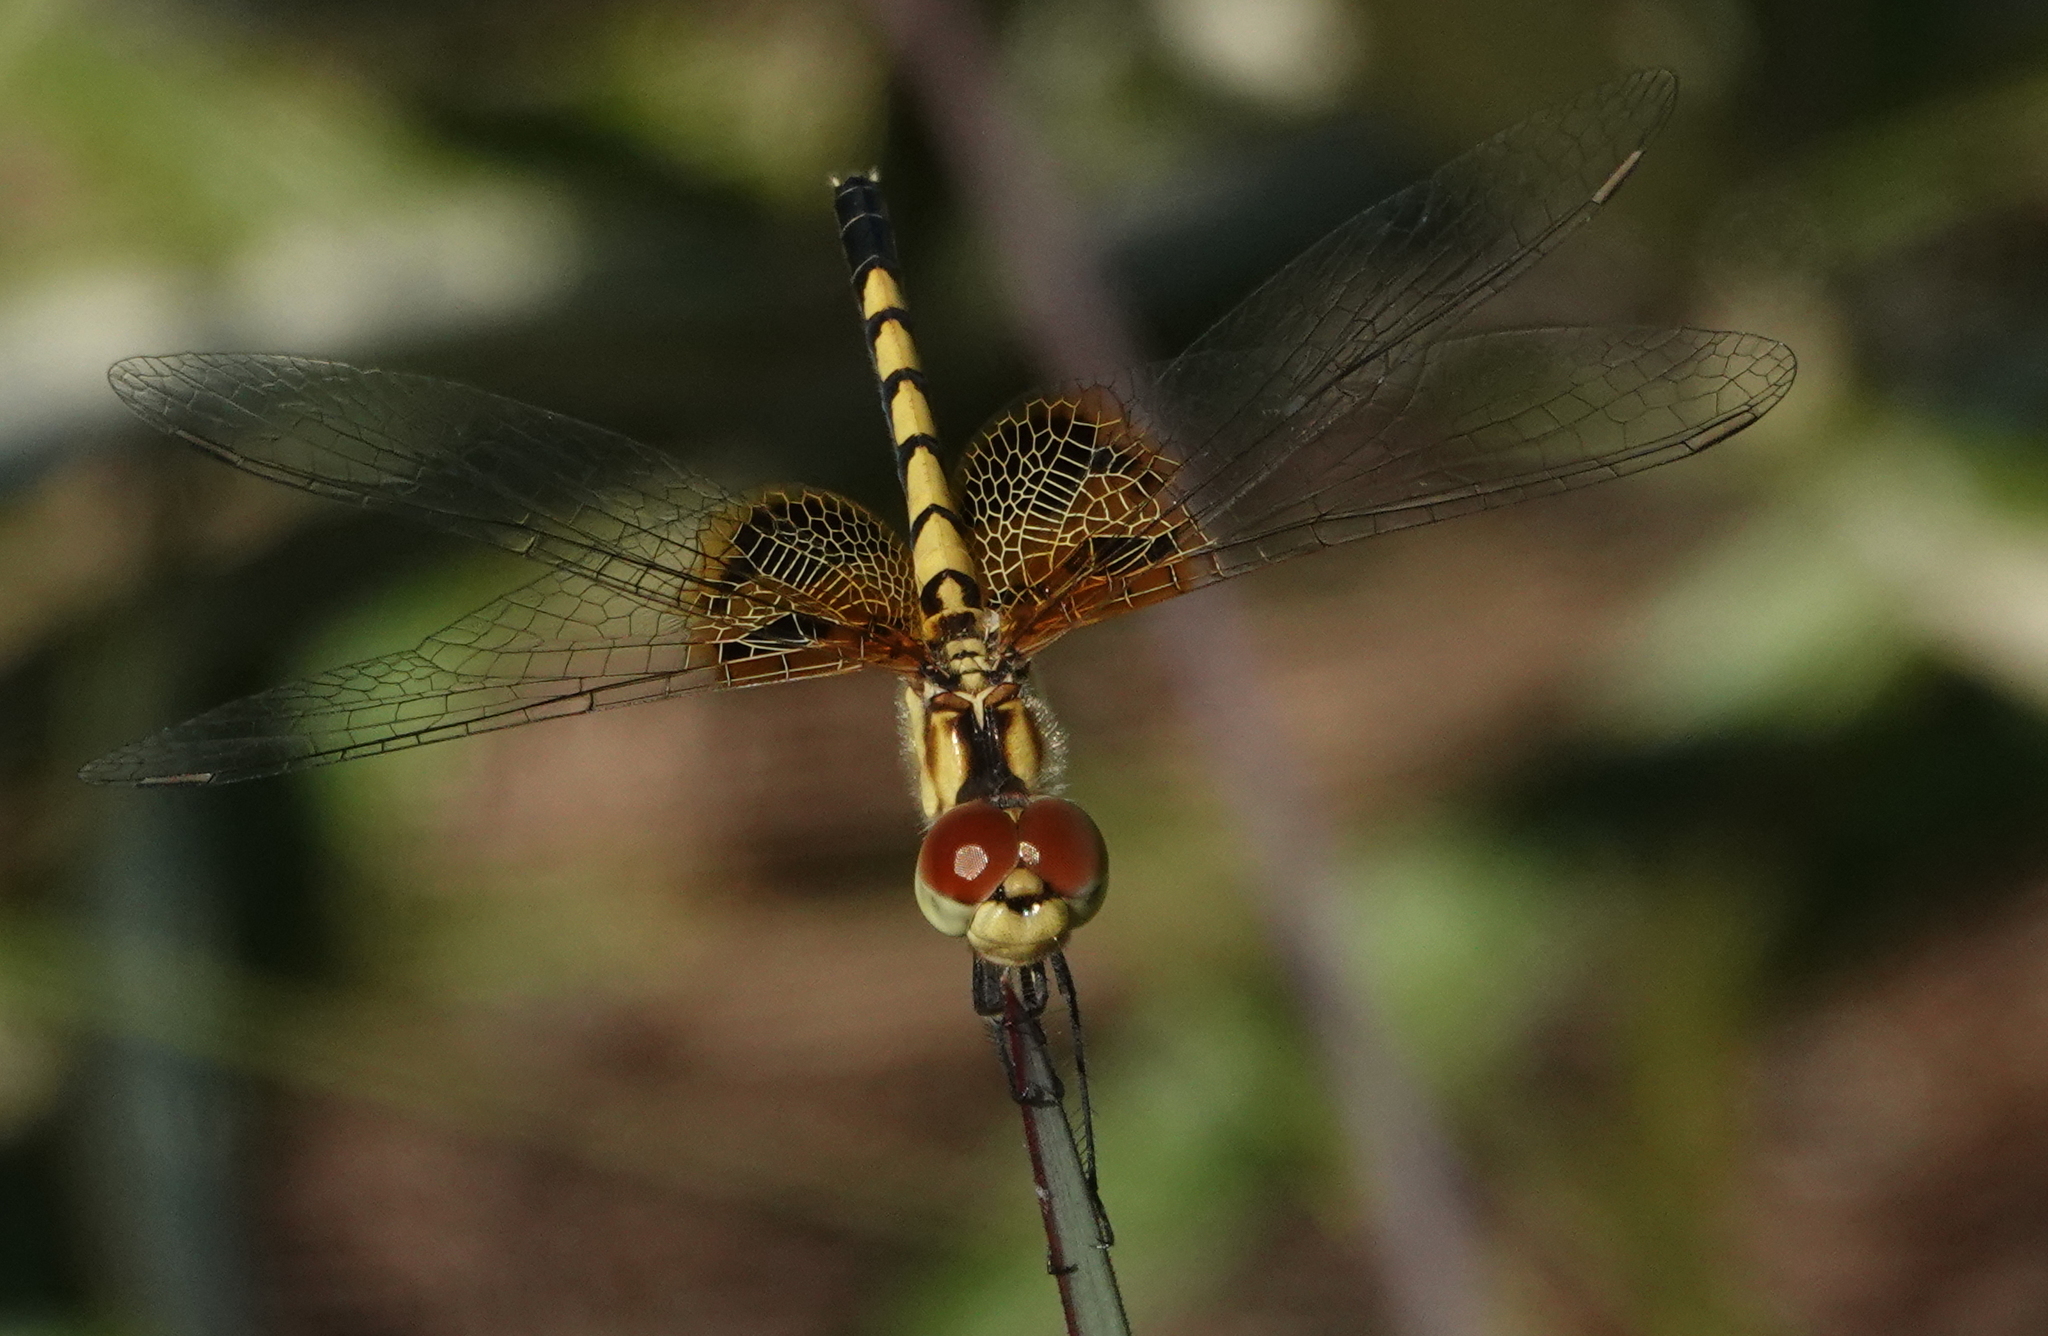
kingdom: Animalia
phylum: Arthropoda
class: Insecta
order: Odonata
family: Libellulidae
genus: Celithemis
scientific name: Celithemis amanda
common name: Amanda's pennant
